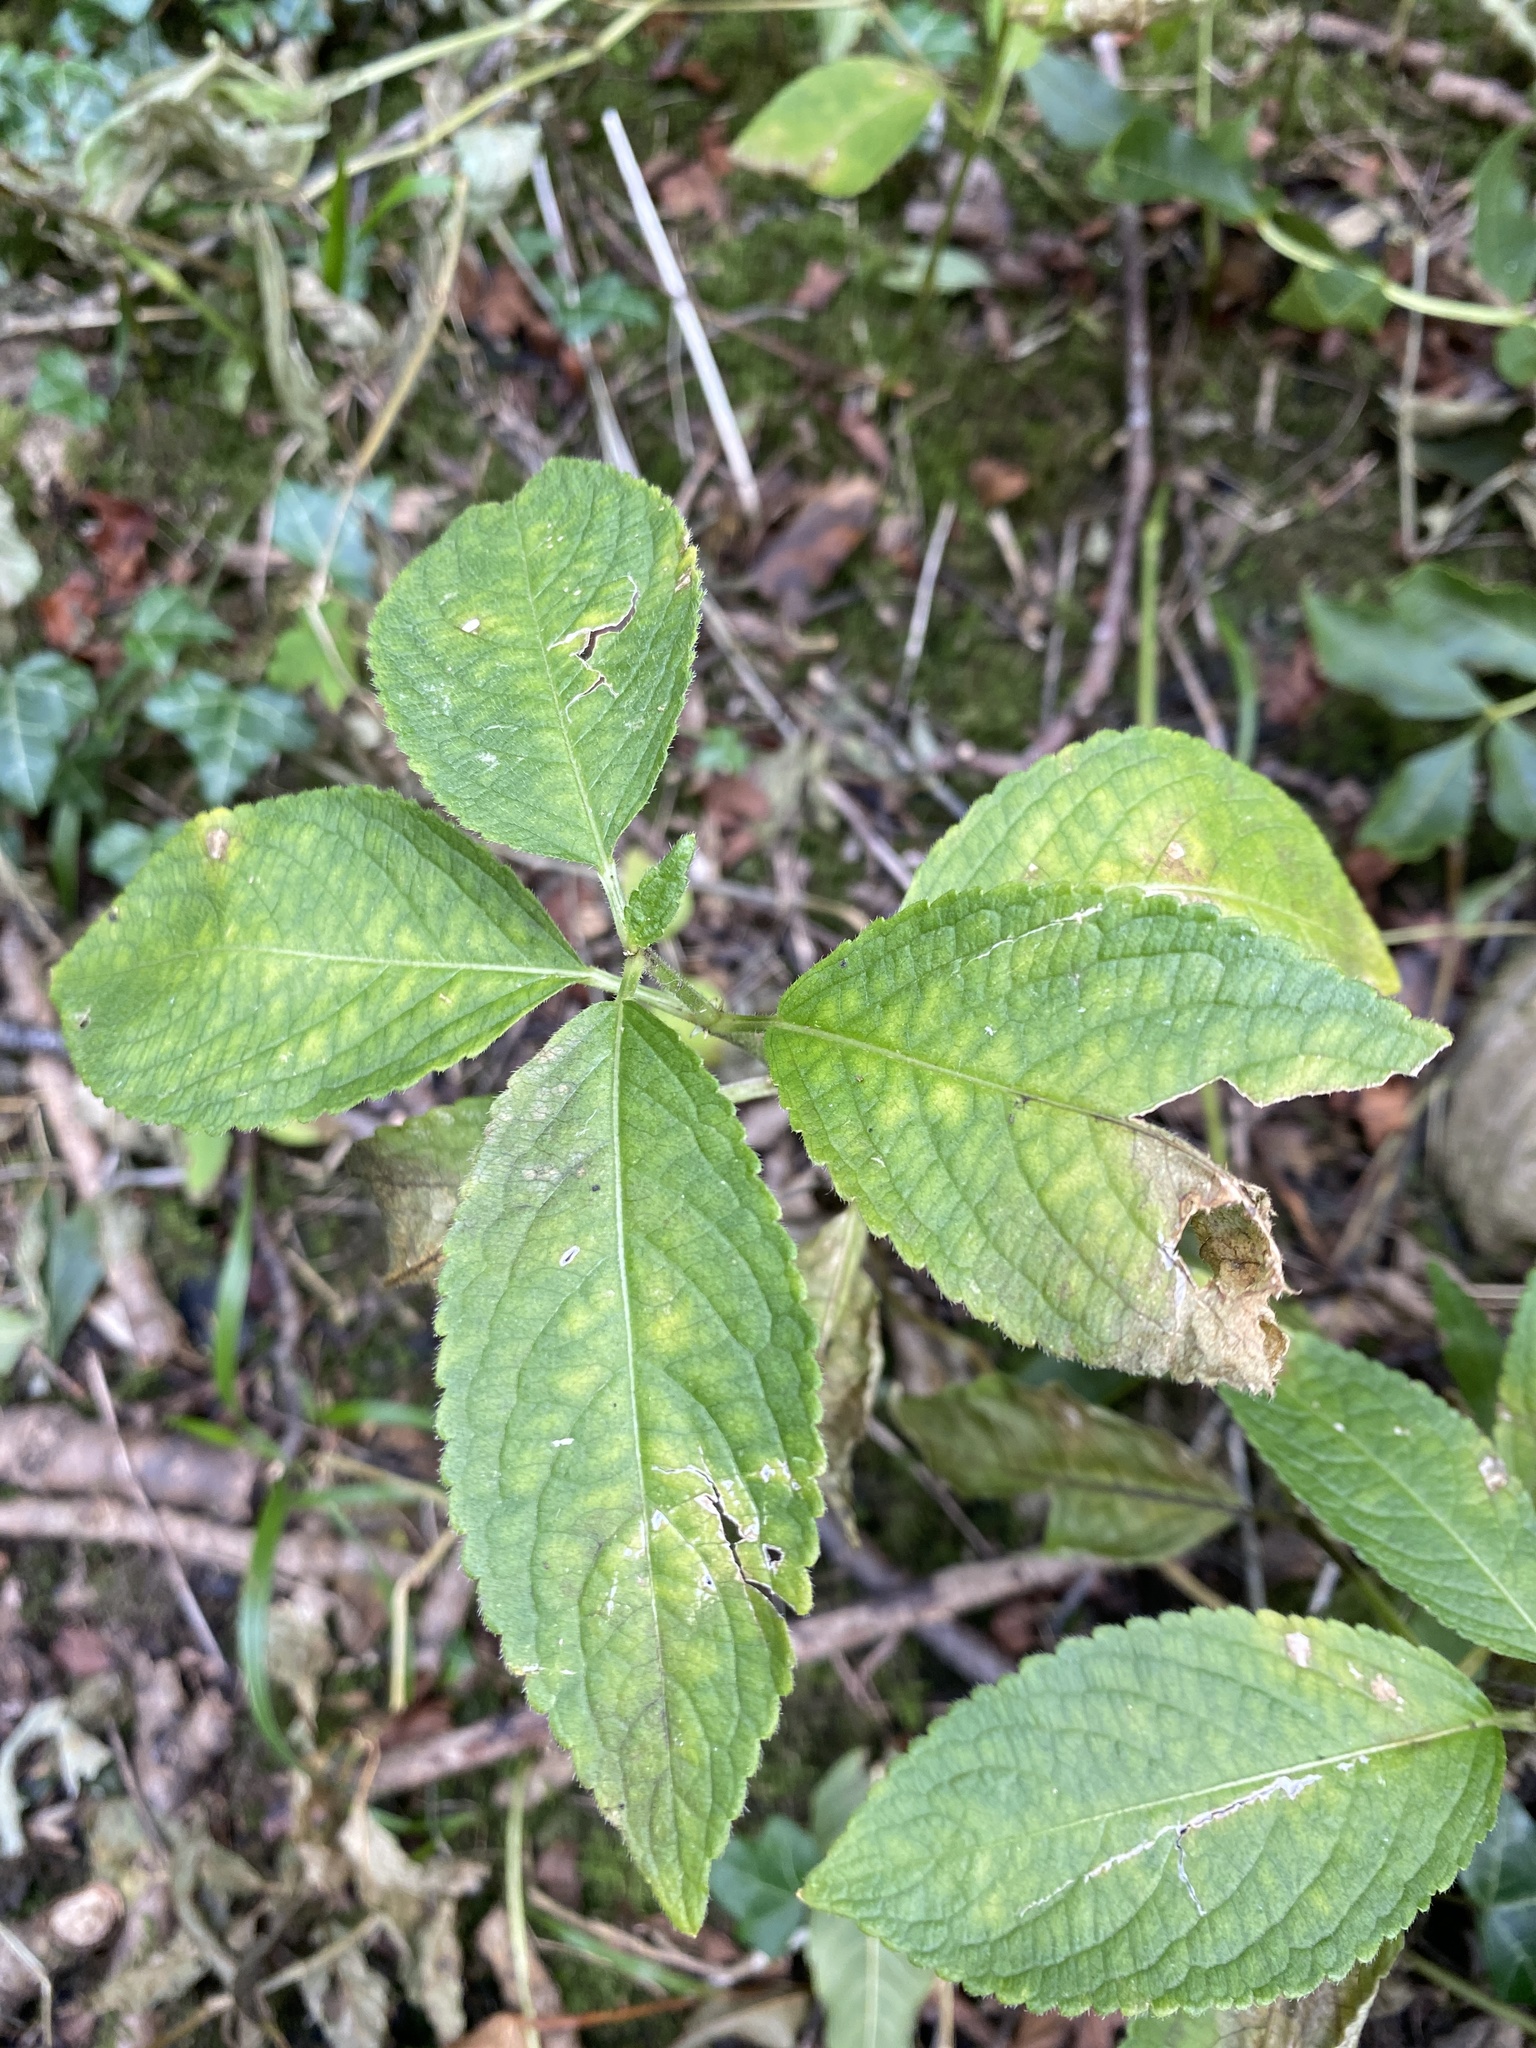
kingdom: Plantae
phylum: Tracheophyta
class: Magnoliopsida
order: Malpighiales
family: Euphorbiaceae
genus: Mercurialis
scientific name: Mercurialis perennis
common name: Dog mercury
